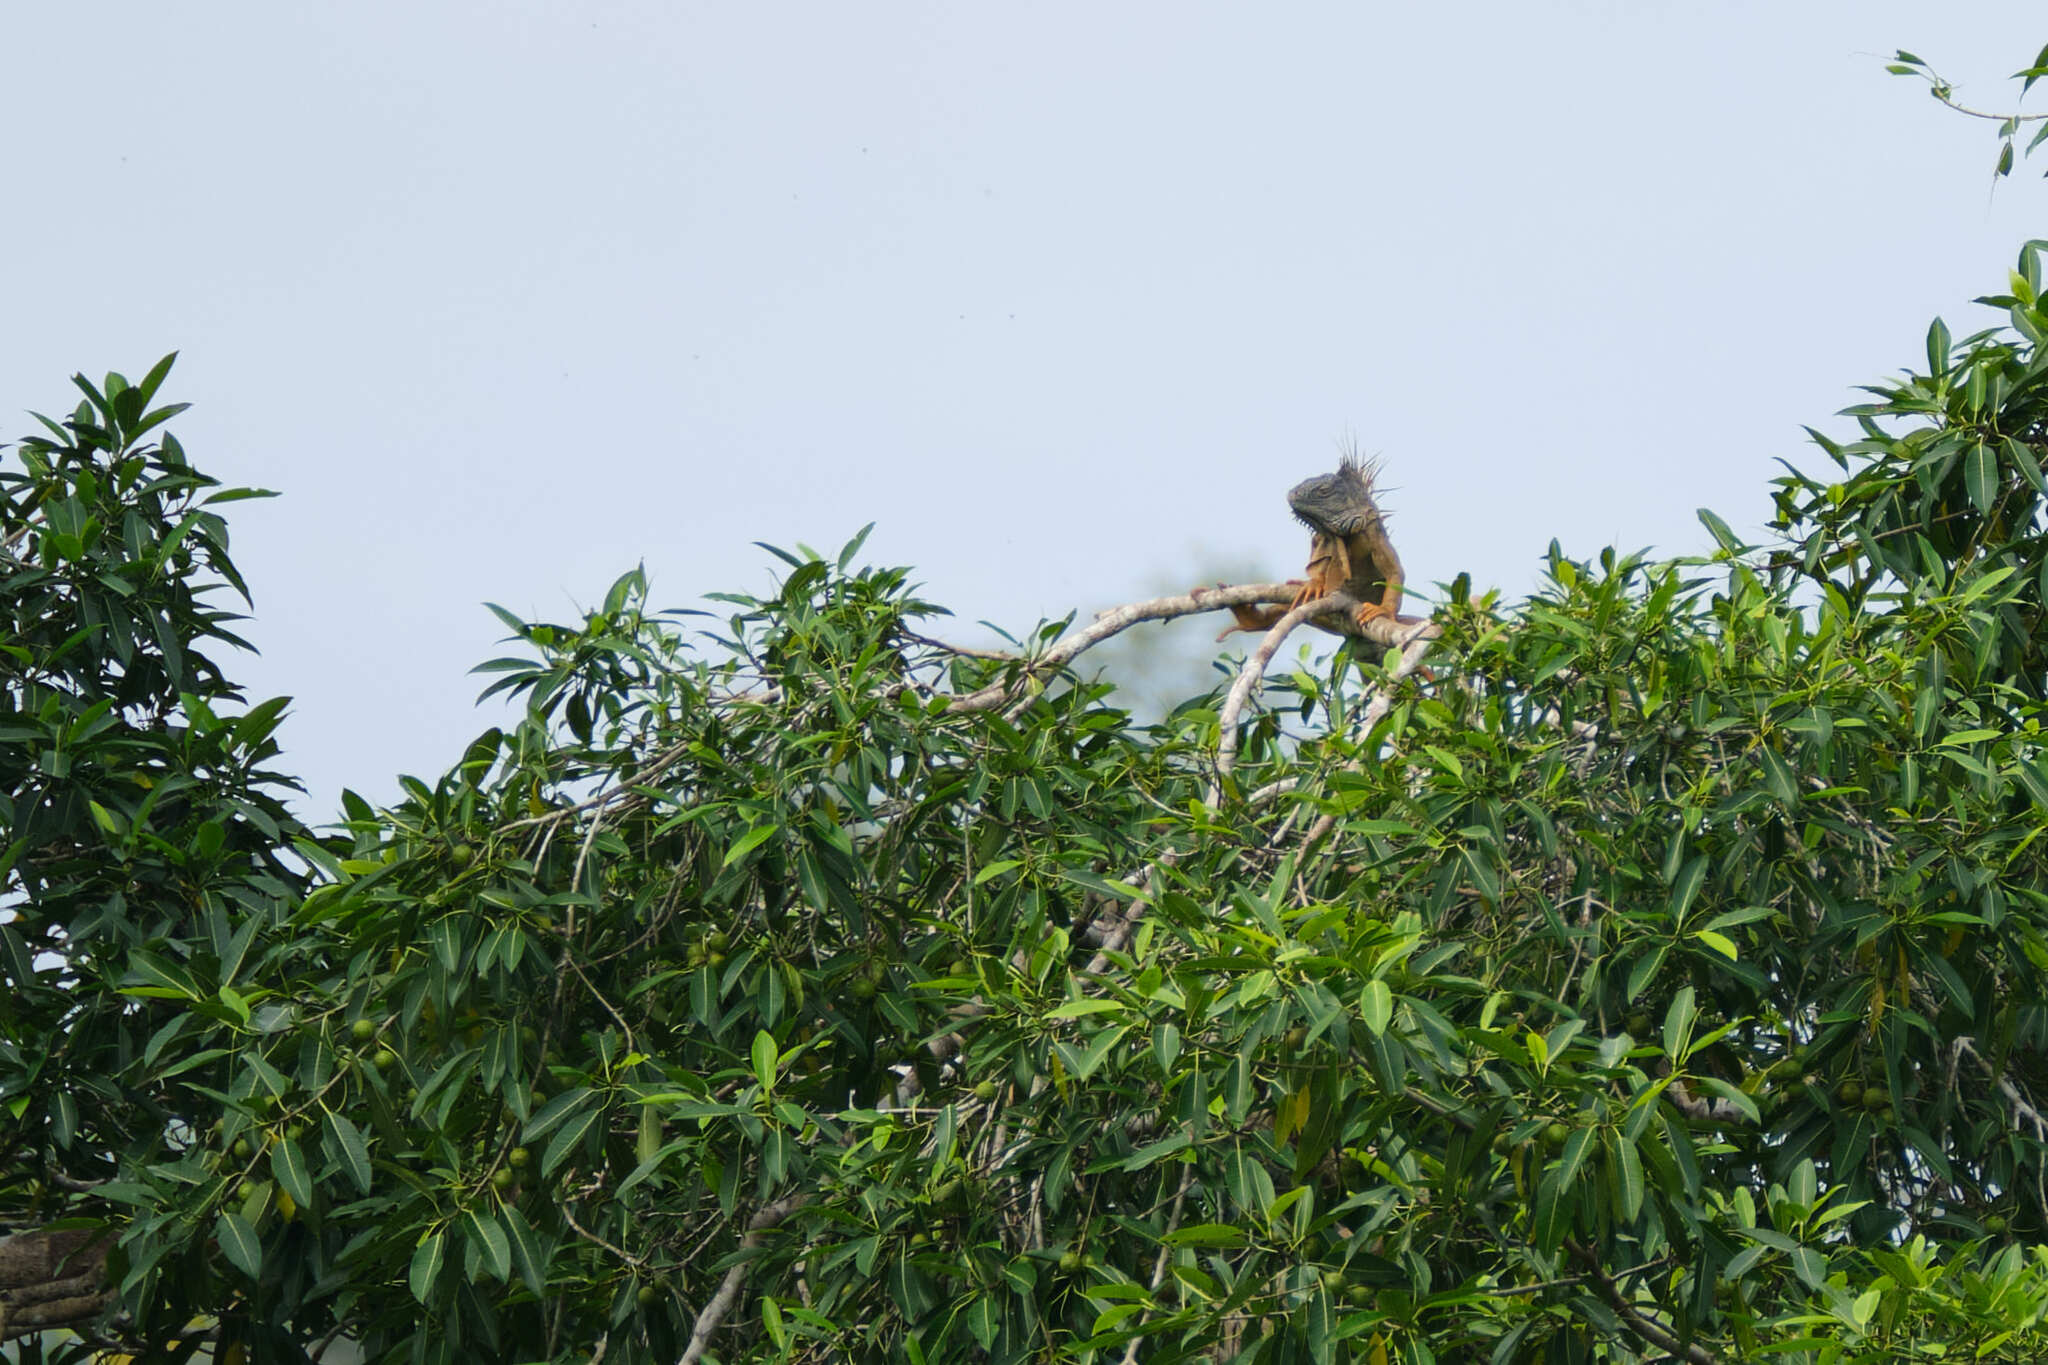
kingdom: Animalia
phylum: Chordata
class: Squamata
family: Iguanidae
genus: Iguana
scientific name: Iguana iguana
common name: Green iguana
